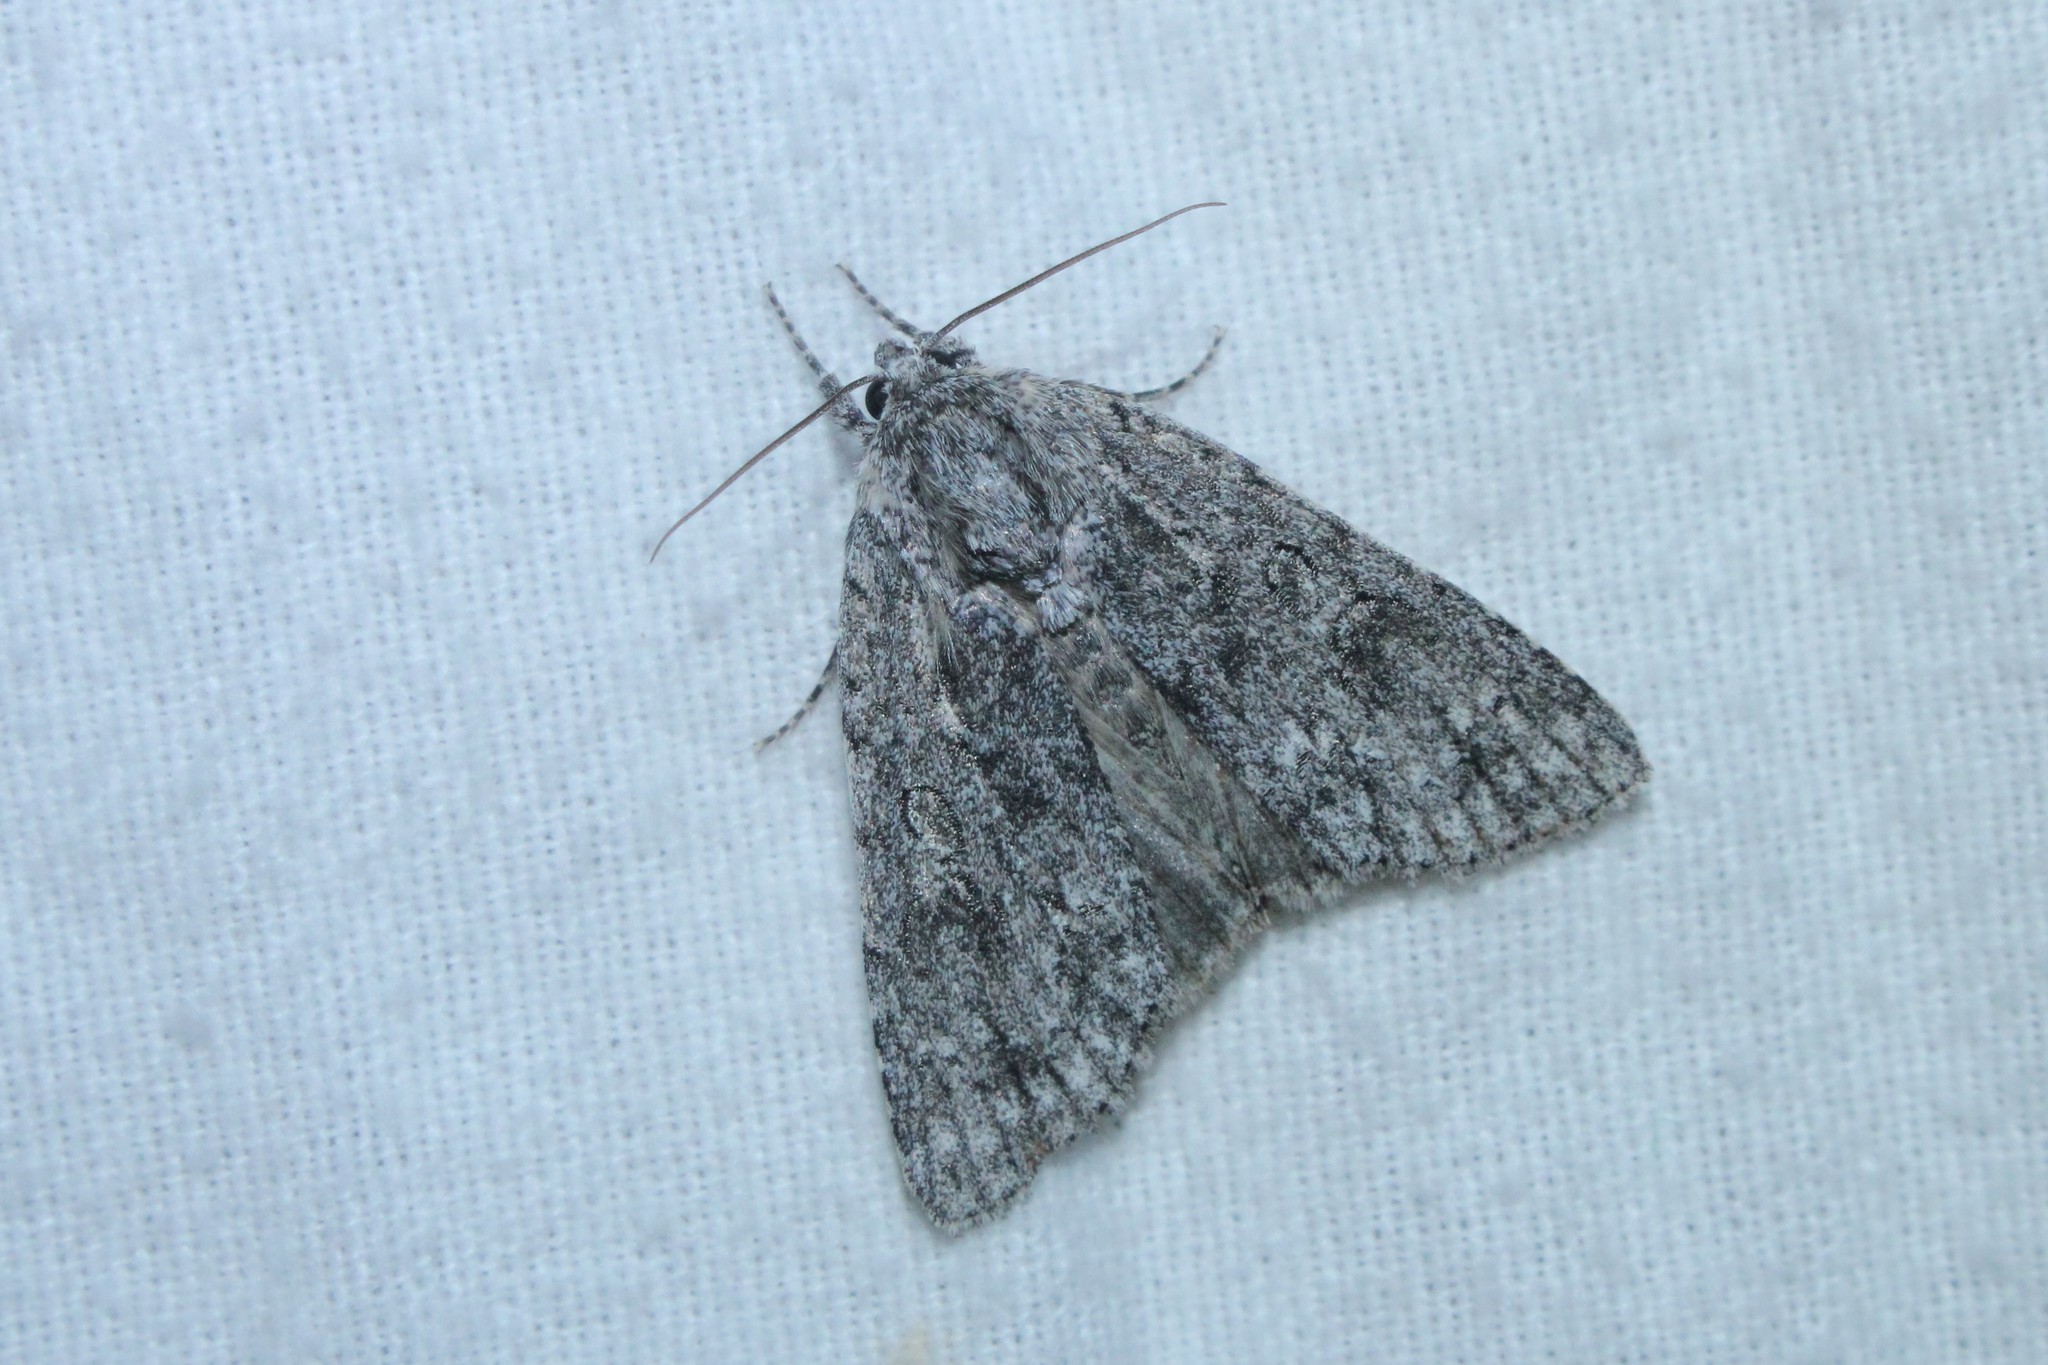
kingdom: Animalia
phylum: Arthropoda
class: Insecta
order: Lepidoptera
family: Noctuidae
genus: Acronicta
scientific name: Acronicta impleta
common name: Powdered dagger
